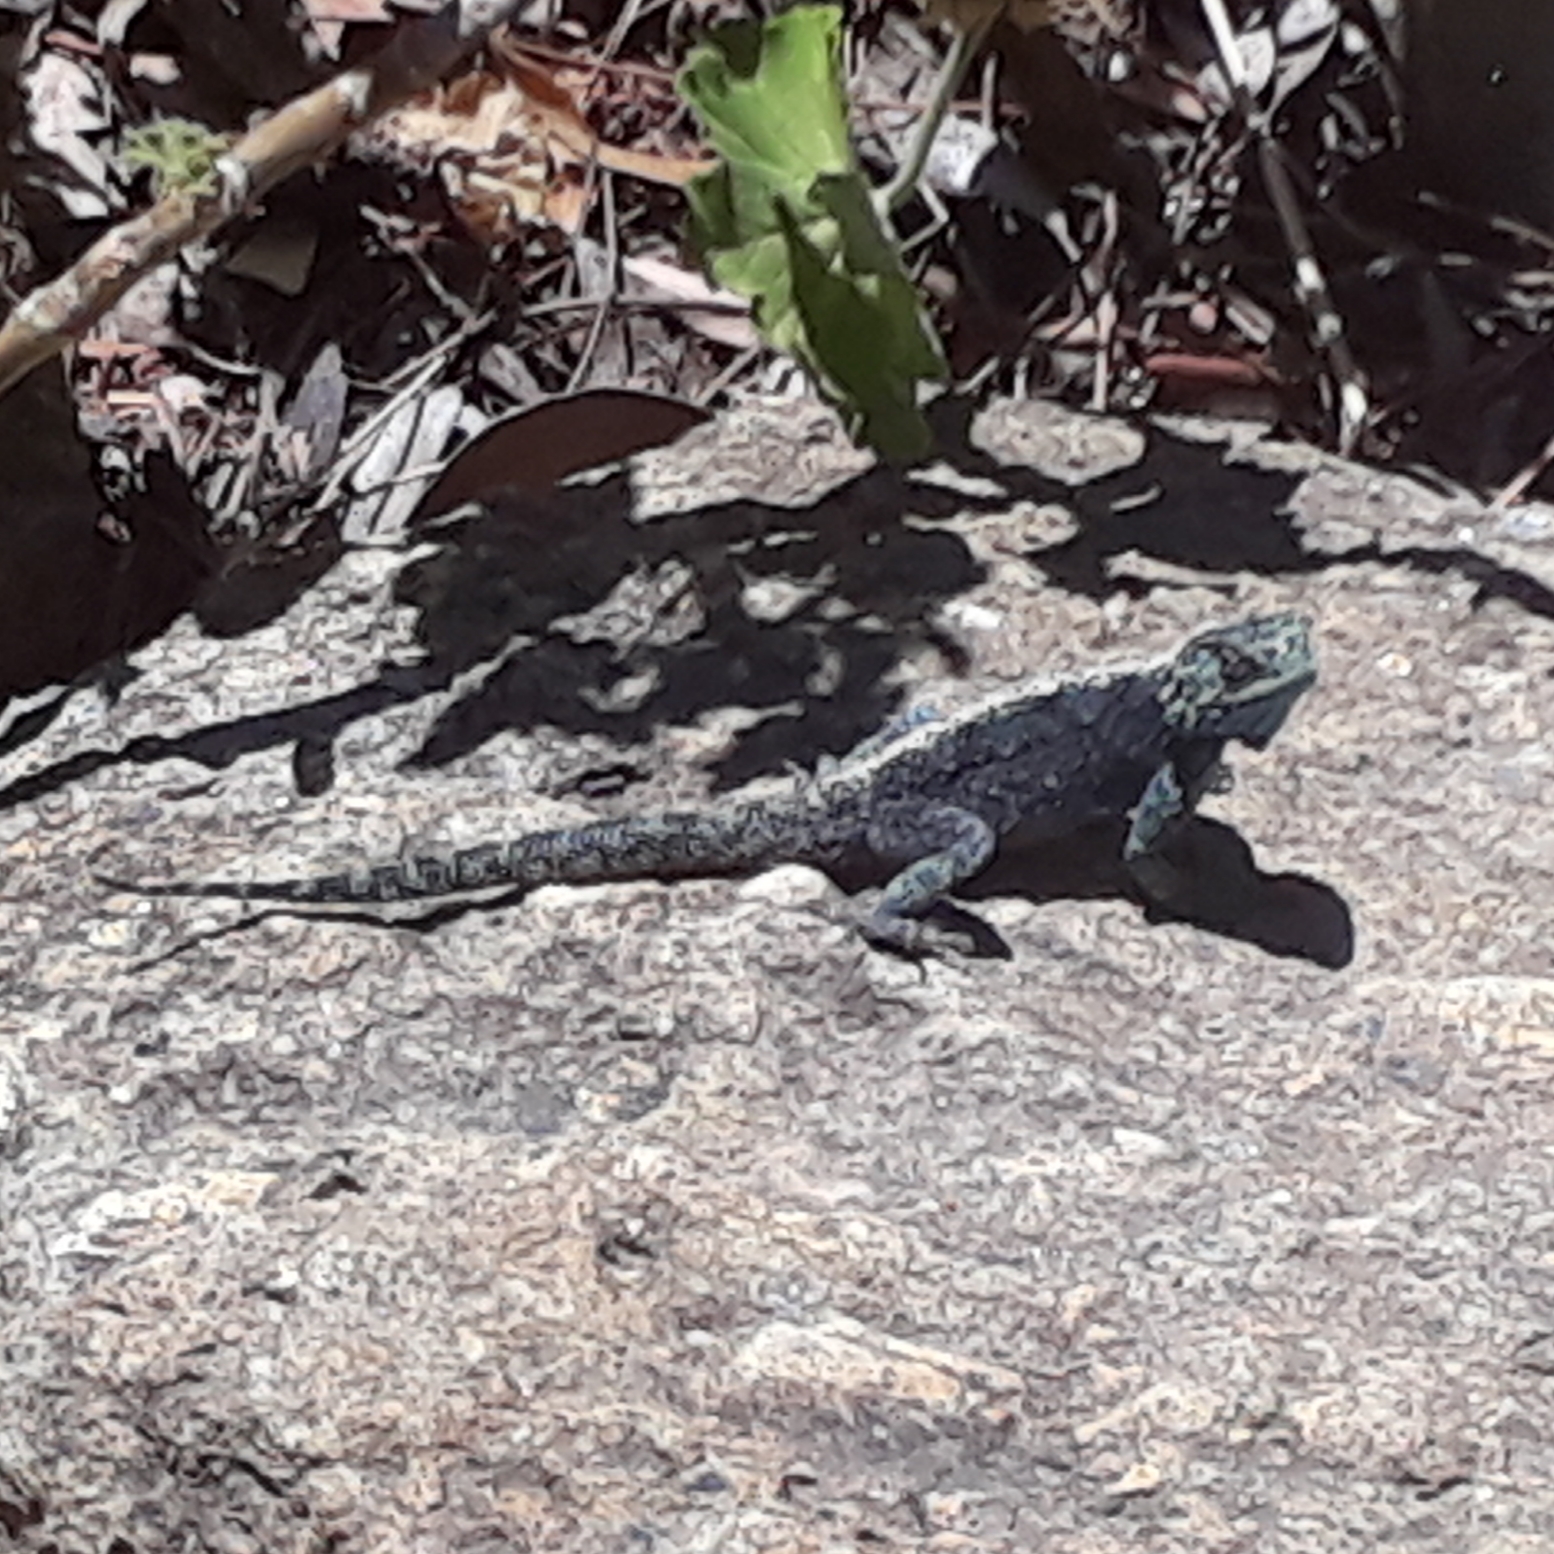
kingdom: Animalia
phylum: Chordata
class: Squamata
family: Agamidae
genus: Agama
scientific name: Agama atra
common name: Southern african rock agama
